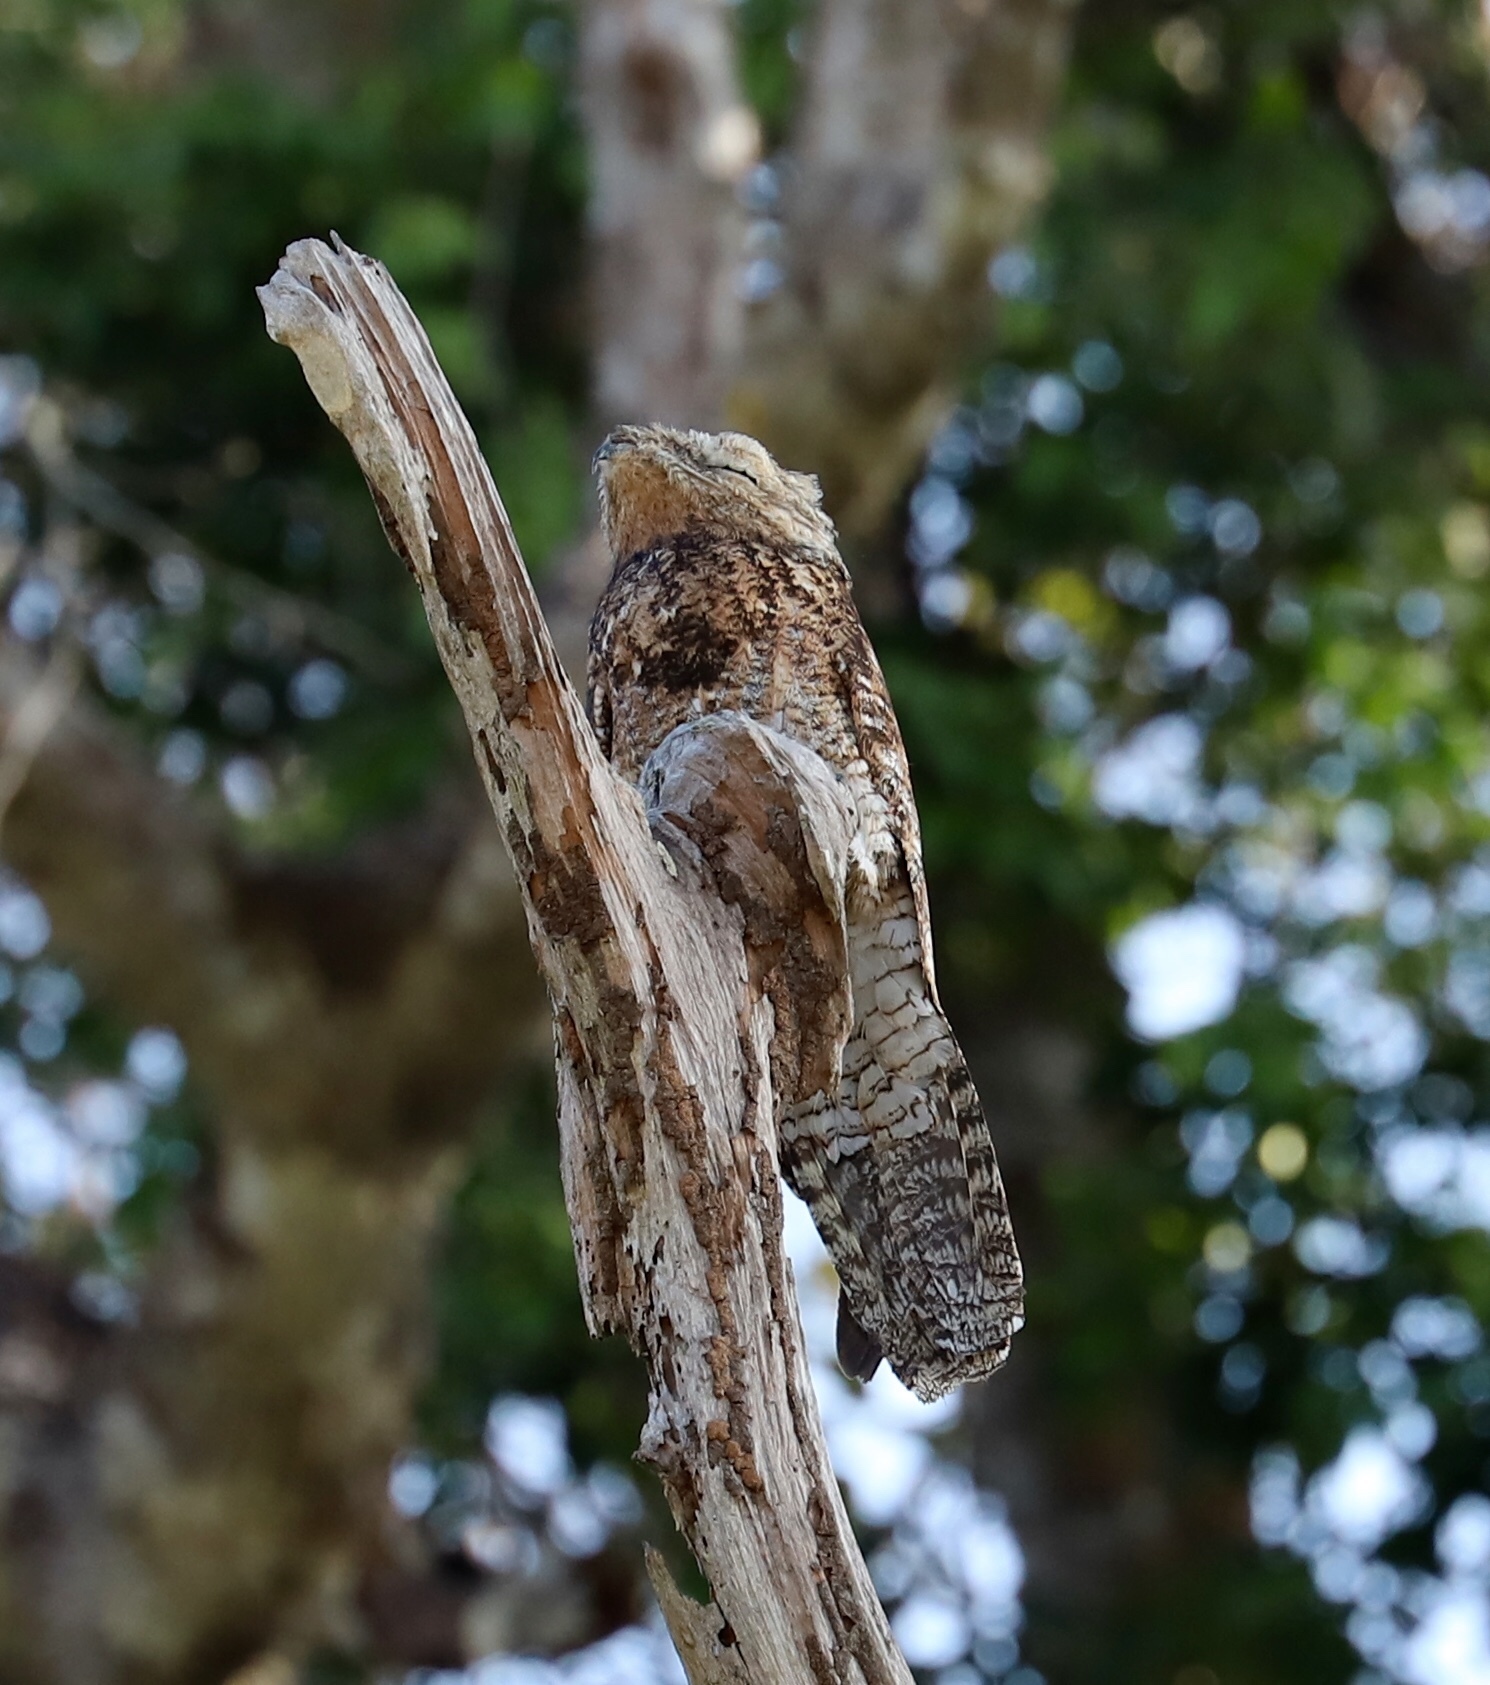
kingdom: Animalia
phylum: Chordata
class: Aves
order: Nyctibiiformes
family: Nyctibiidae
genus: Nyctibius
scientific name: Nyctibius grandis
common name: Great potoo
